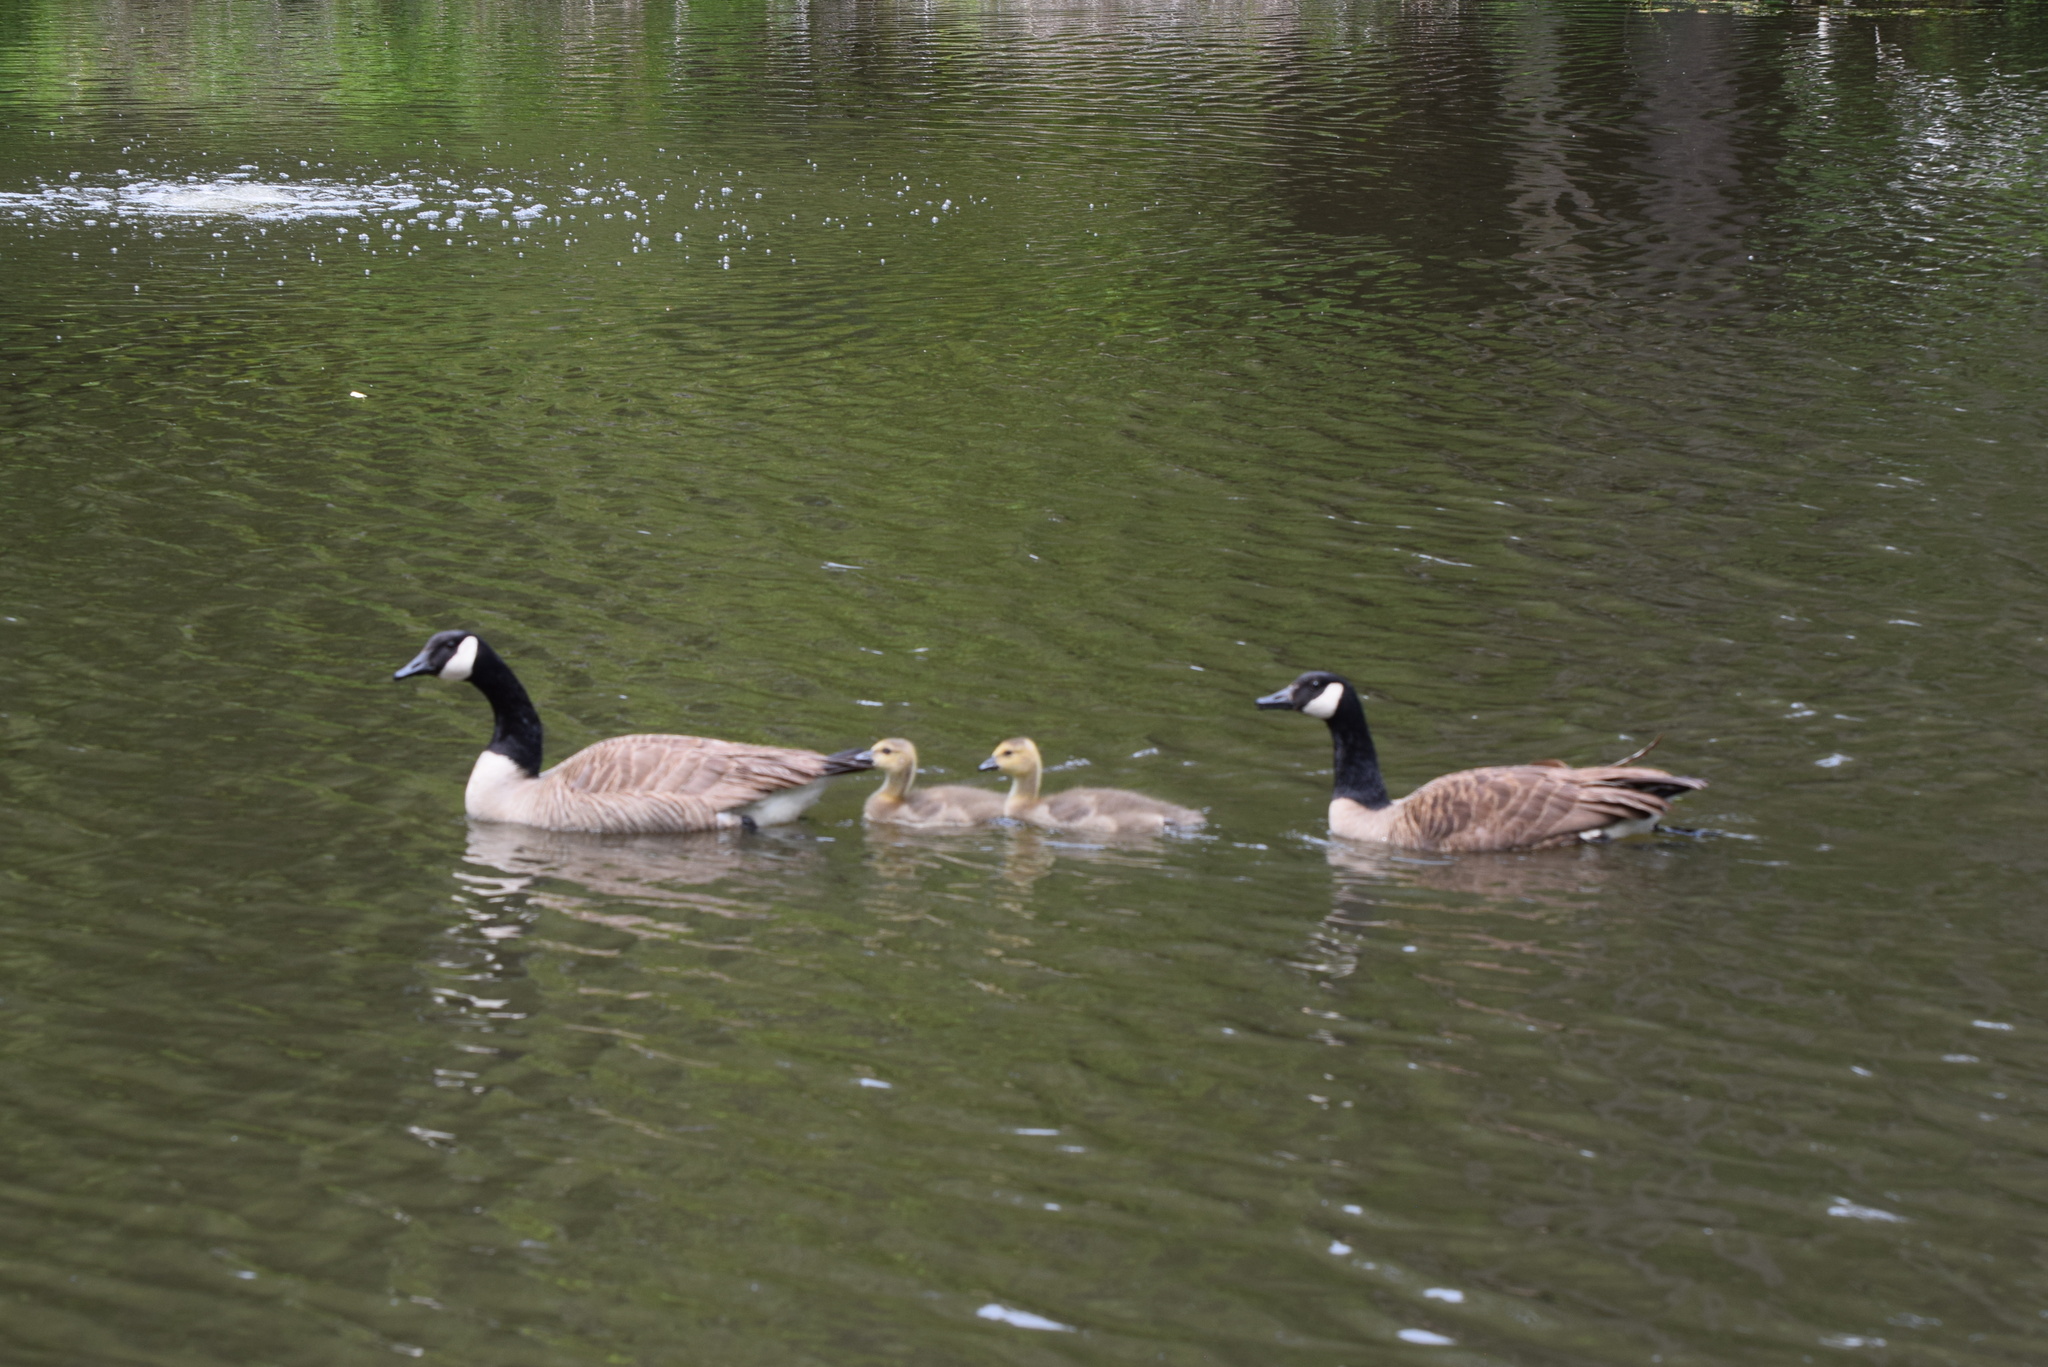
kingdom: Animalia
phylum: Chordata
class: Aves
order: Anseriformes
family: Anatidae
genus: Branta
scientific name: Branta canadensis
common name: Canada goose
